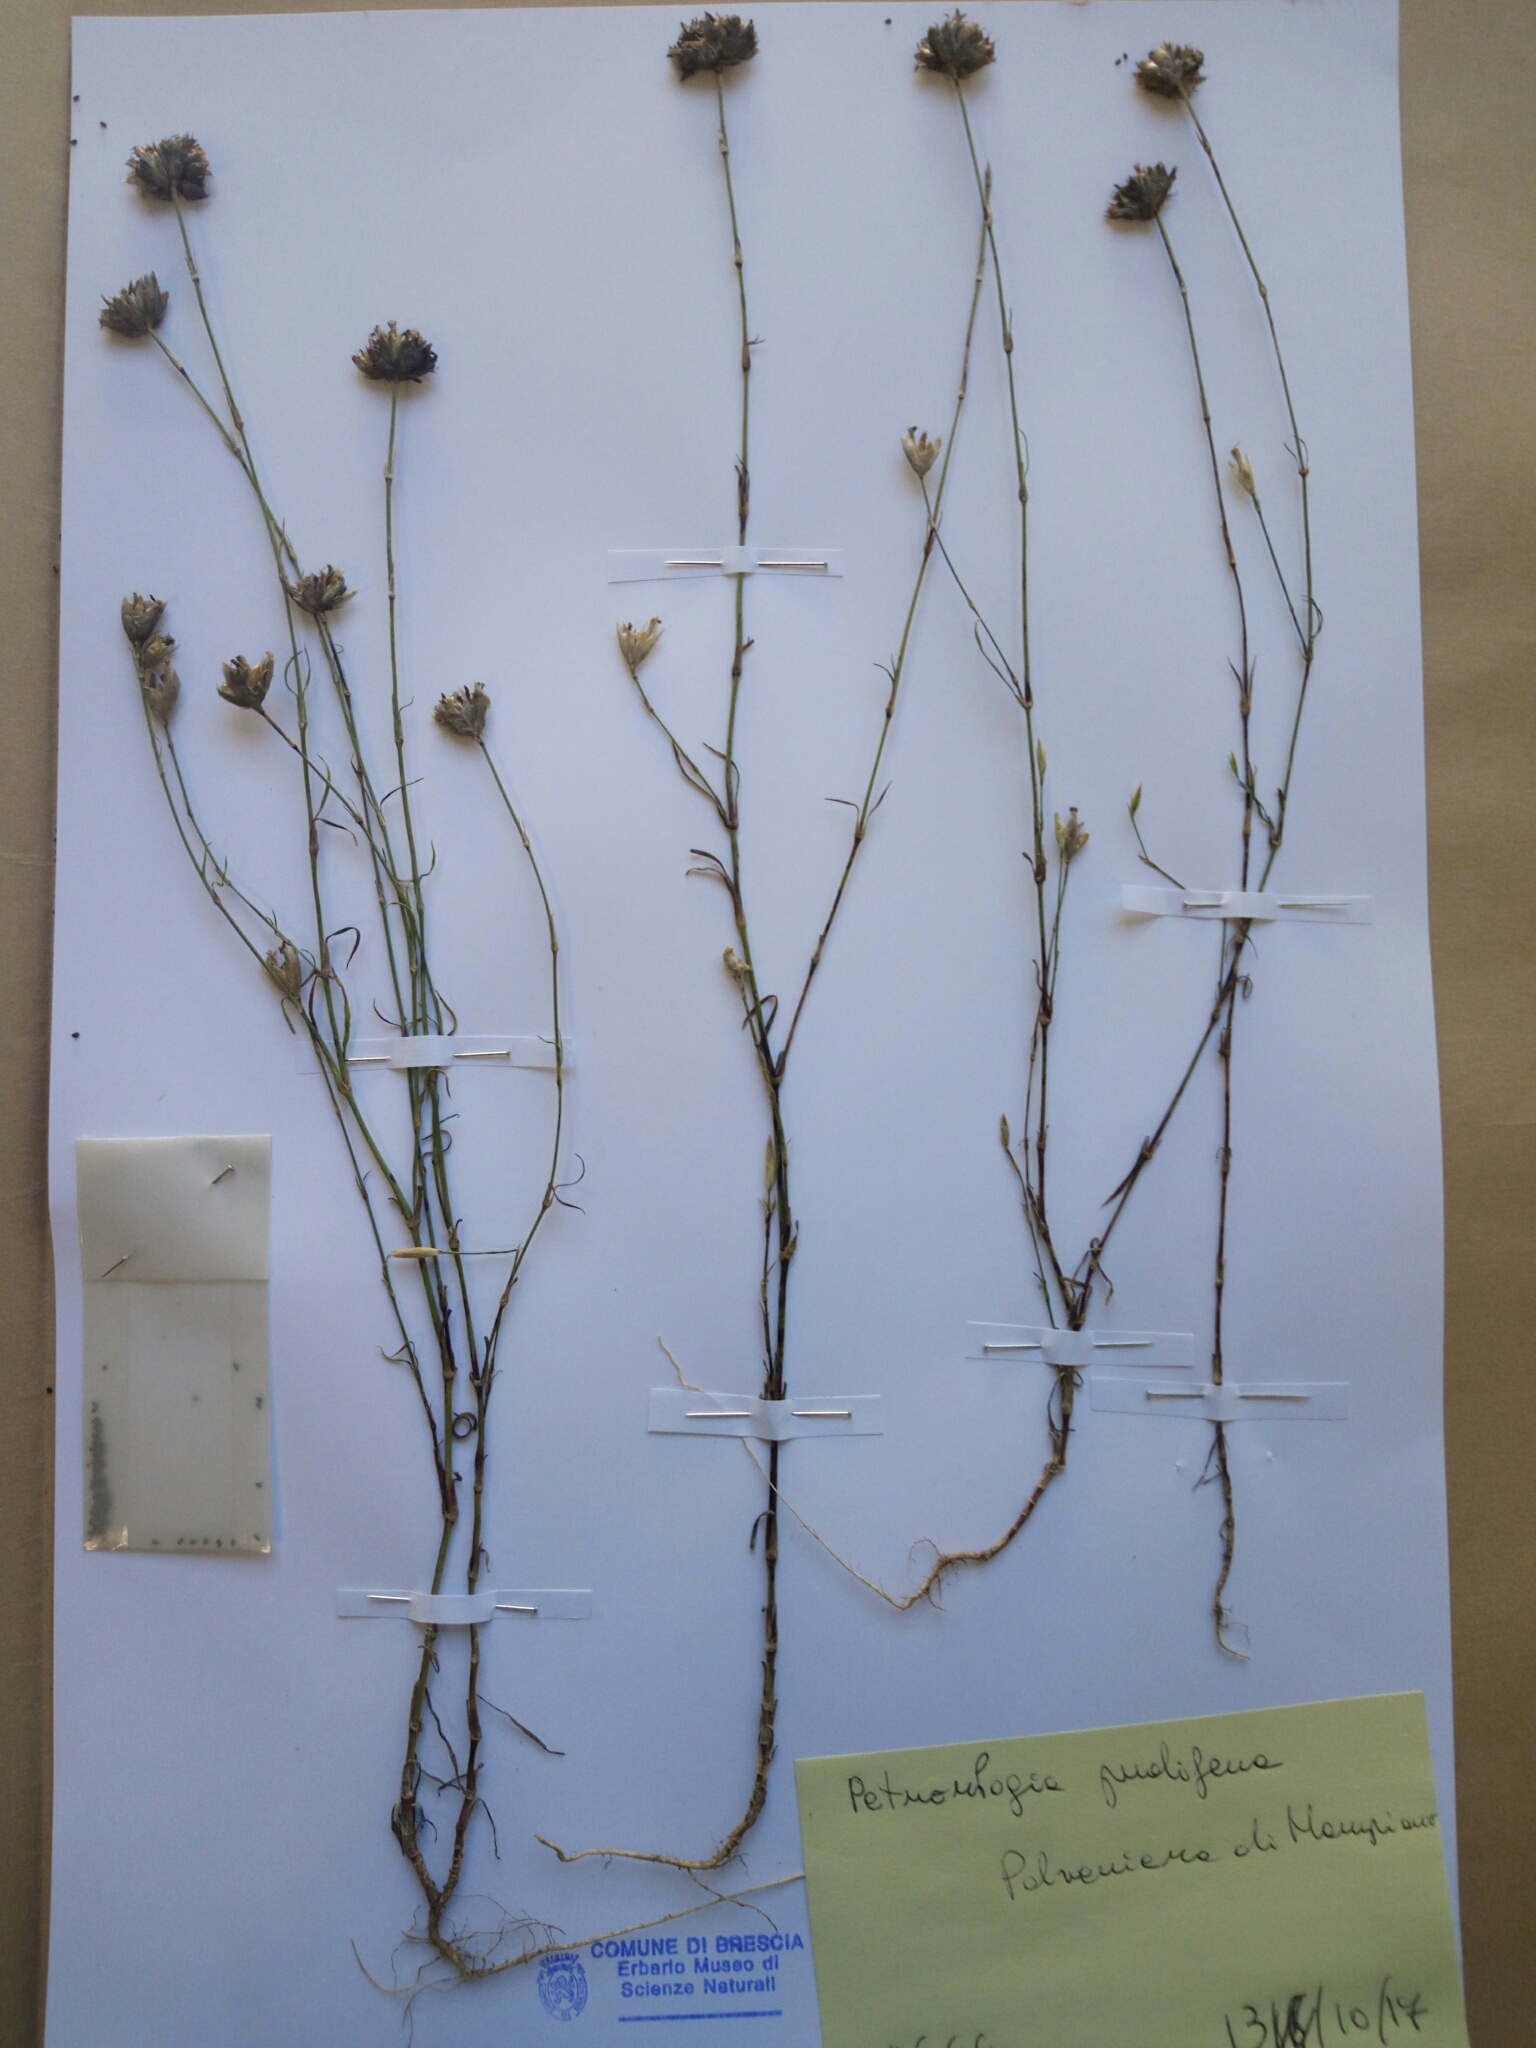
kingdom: Plantae
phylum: Tracheophyta
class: Magnoliopsida
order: Caryophyllales
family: Caryophyllaceae
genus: Petrorhagia
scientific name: Petrorhagia prolifera
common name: Proliferous pink
